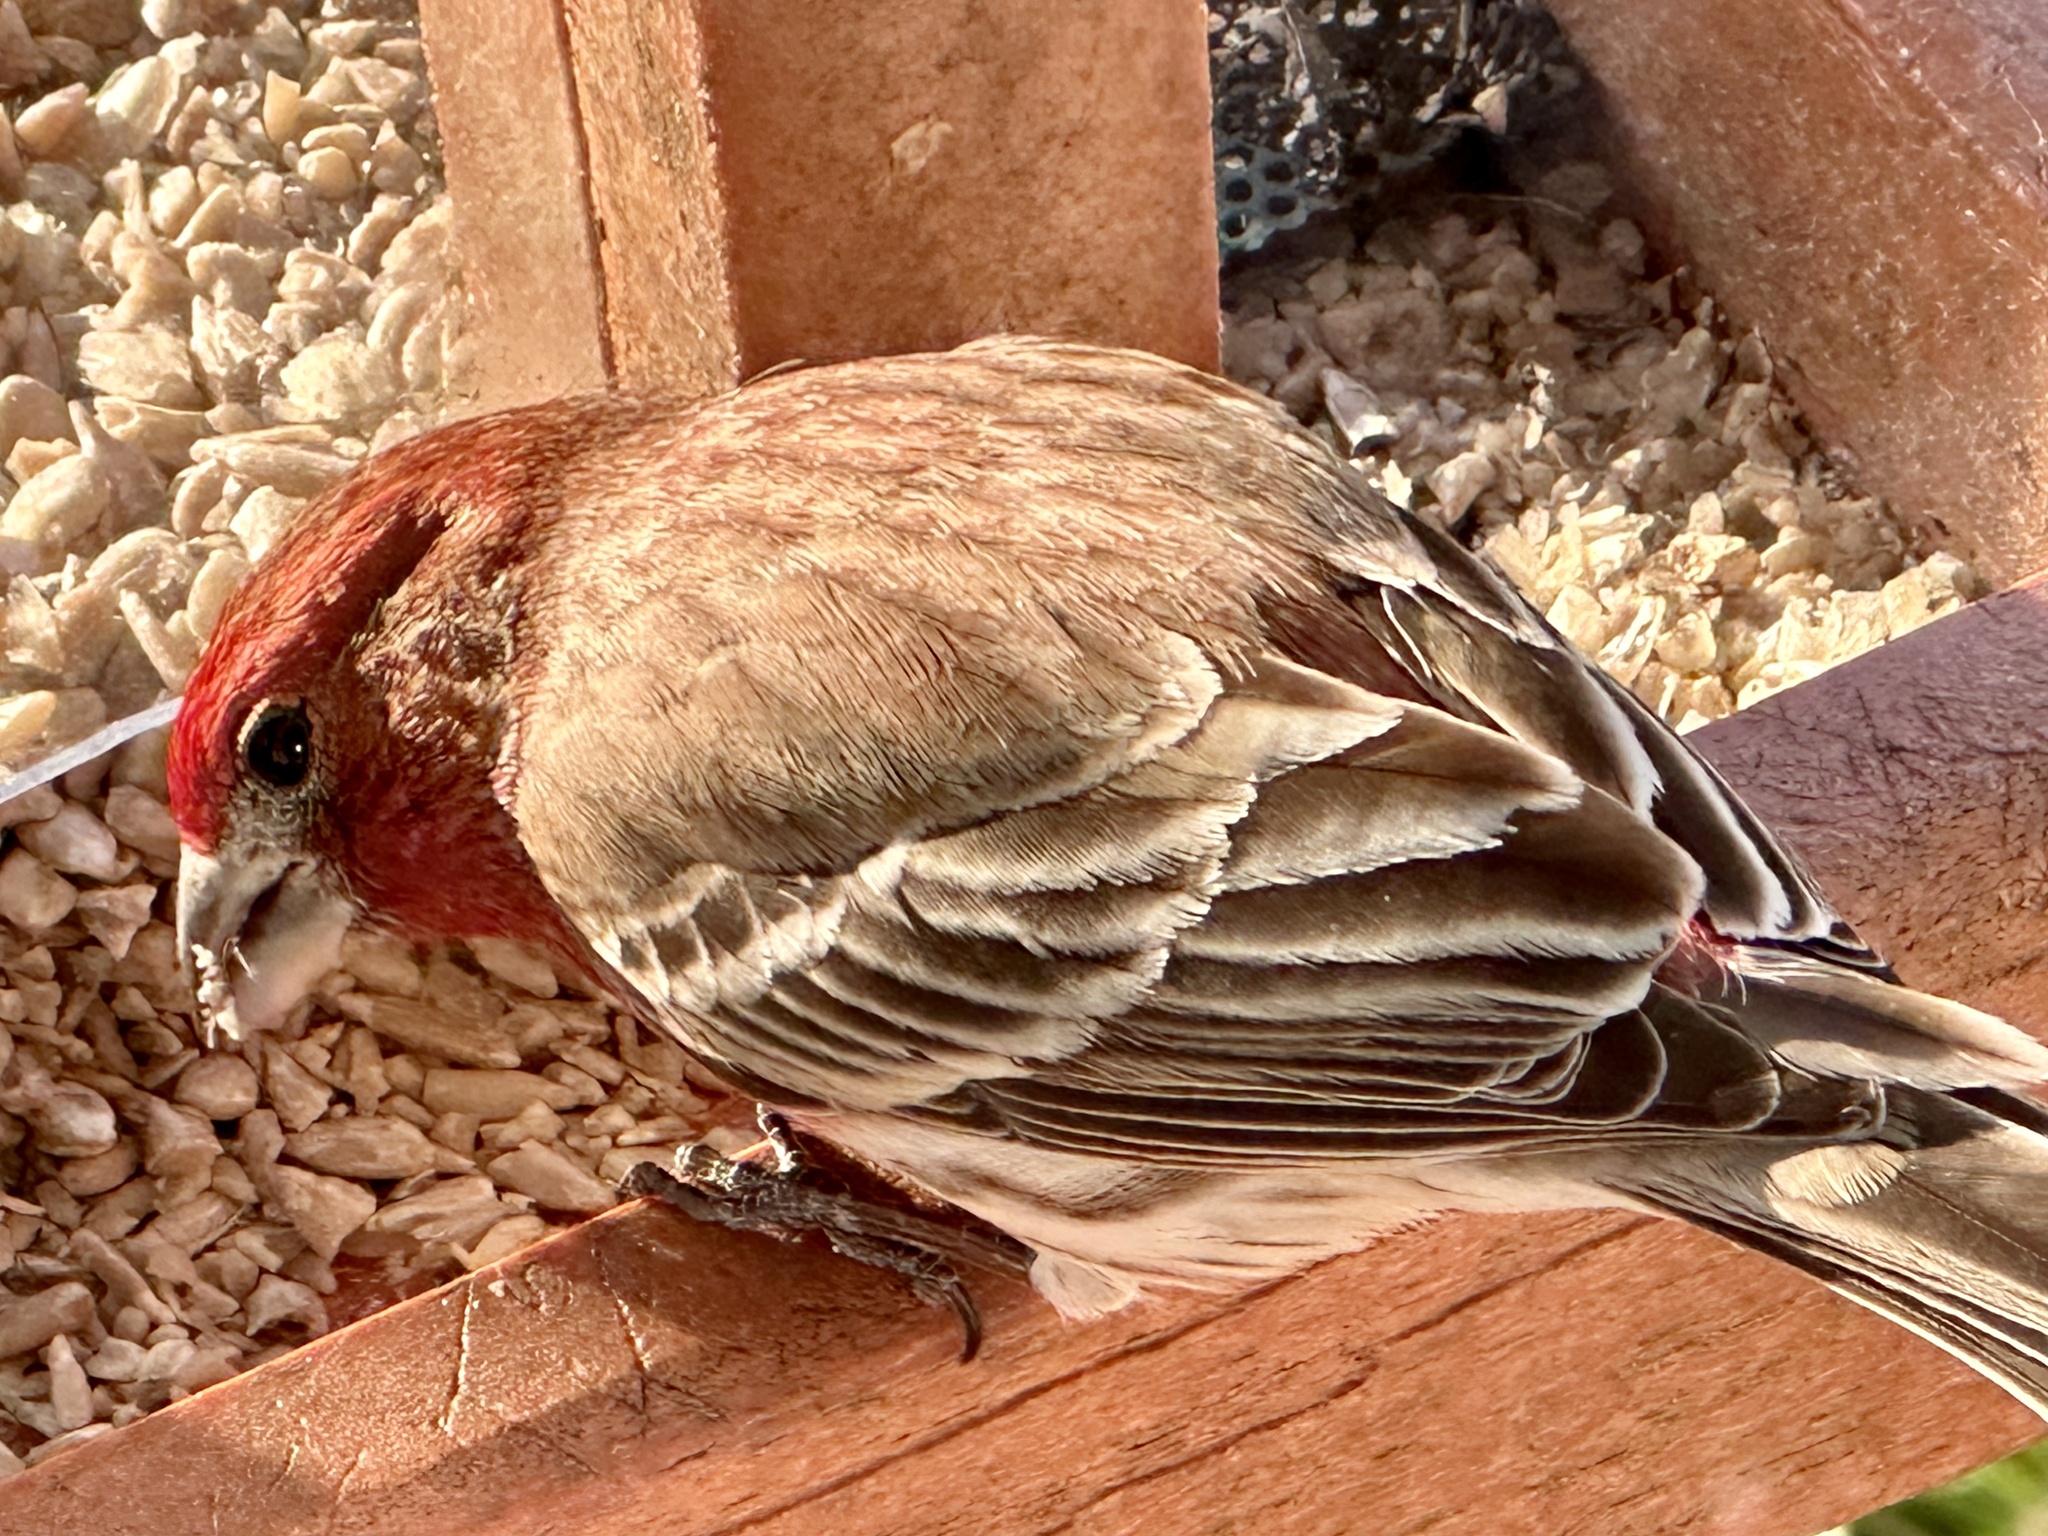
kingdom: Animalia
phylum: Chordata
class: Aves
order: Passeriformes
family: Fringillidae
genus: Haemorhous
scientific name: Haemorhous mexicanus
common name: House finch
